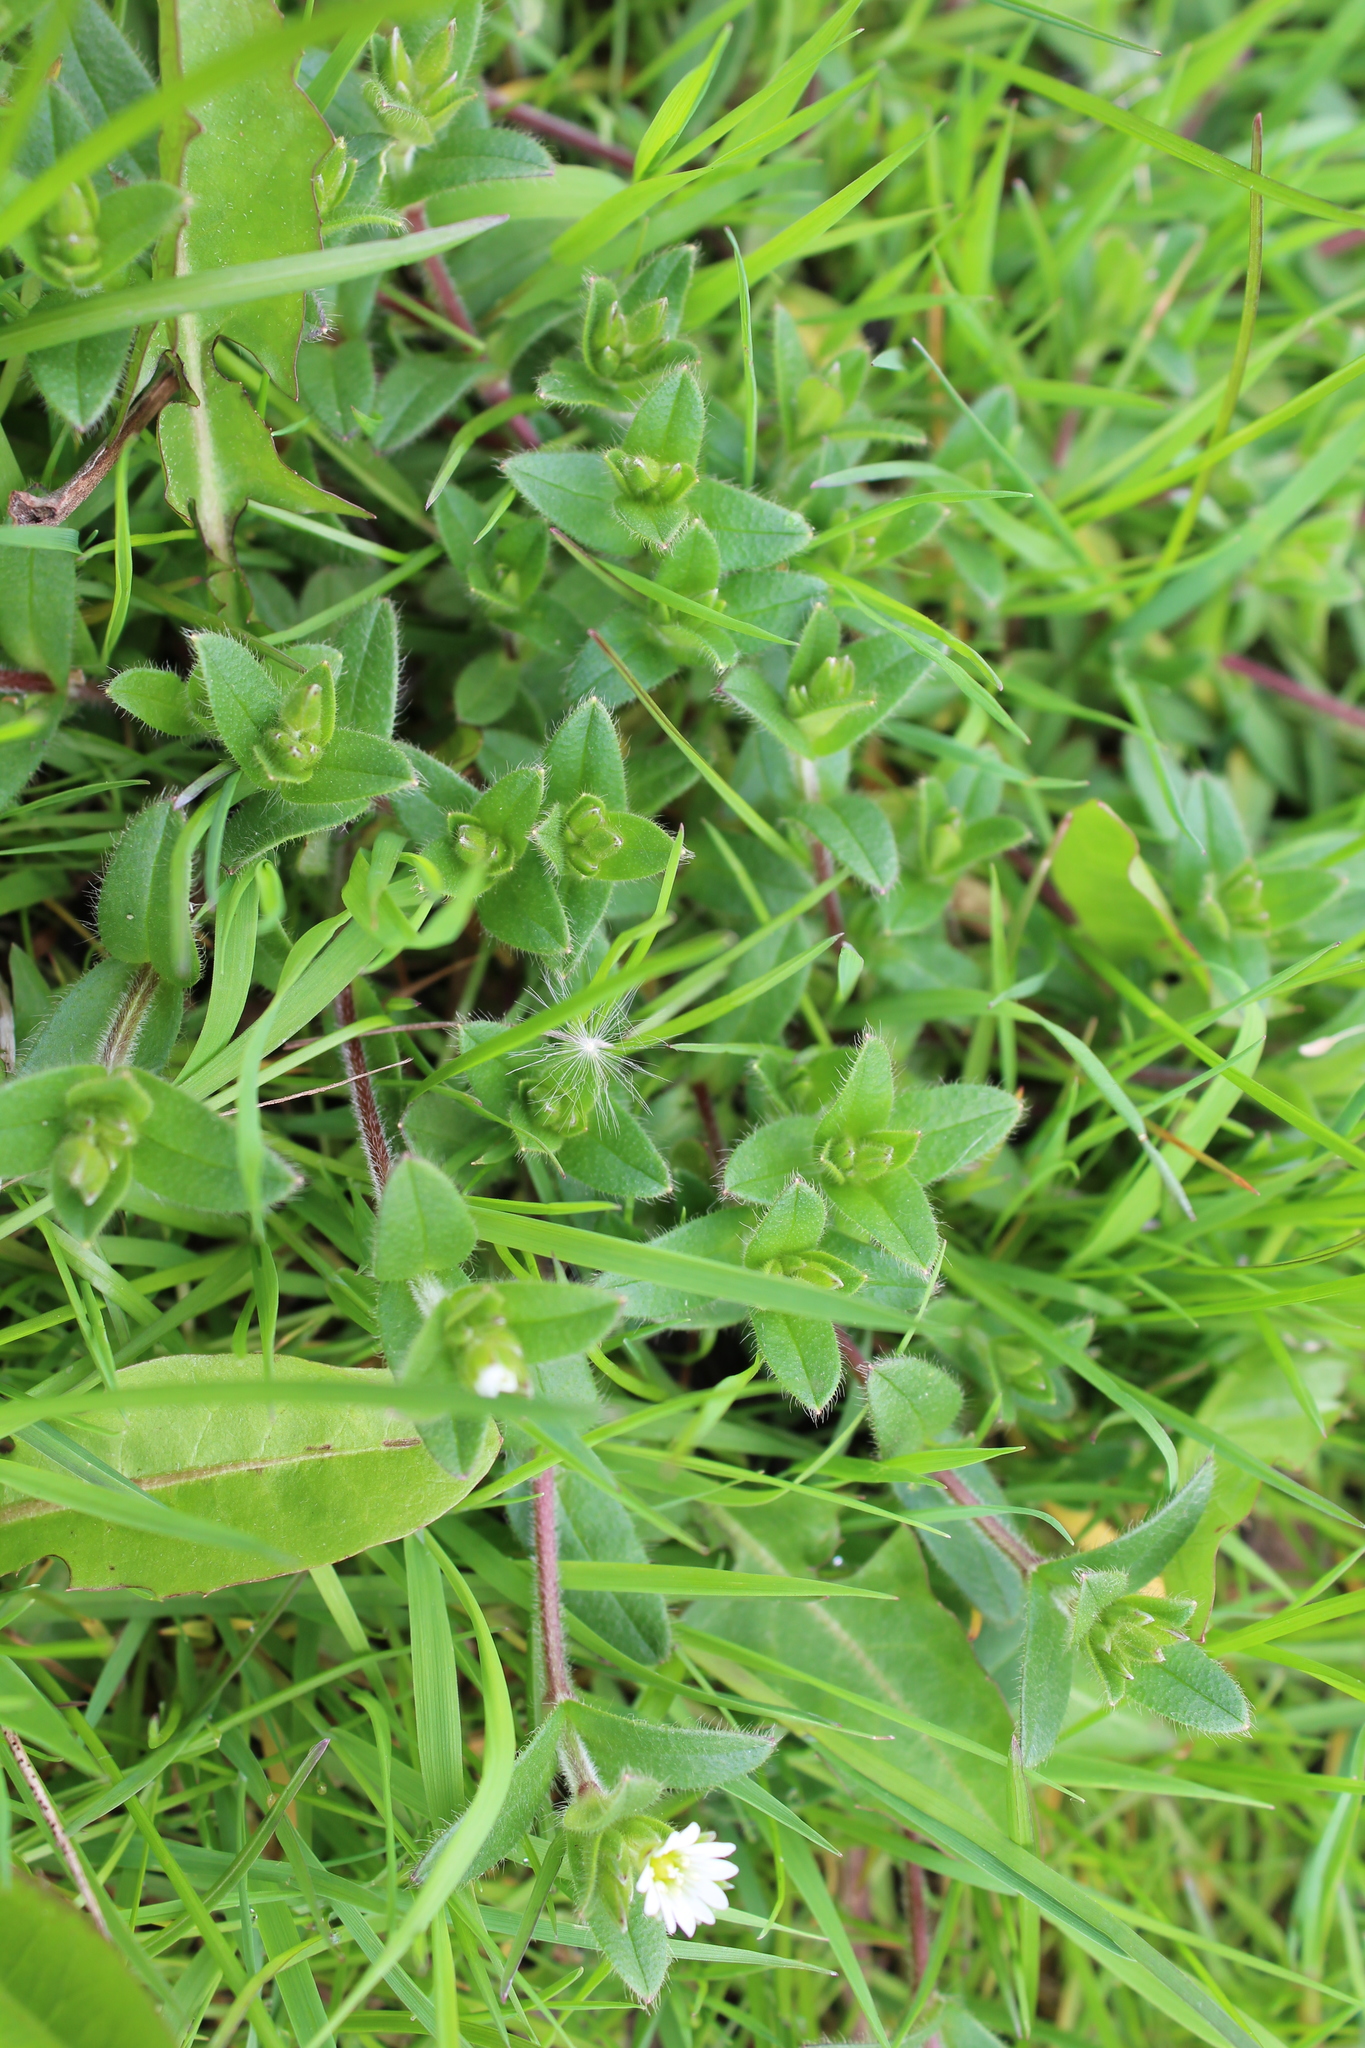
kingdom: Plantae
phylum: Tracheophyta
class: Magnoliopsida
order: Caryophyllales
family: Caryophyllaceae
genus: Cerastium
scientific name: Cerastium fontanum
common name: Common mouse-ear
